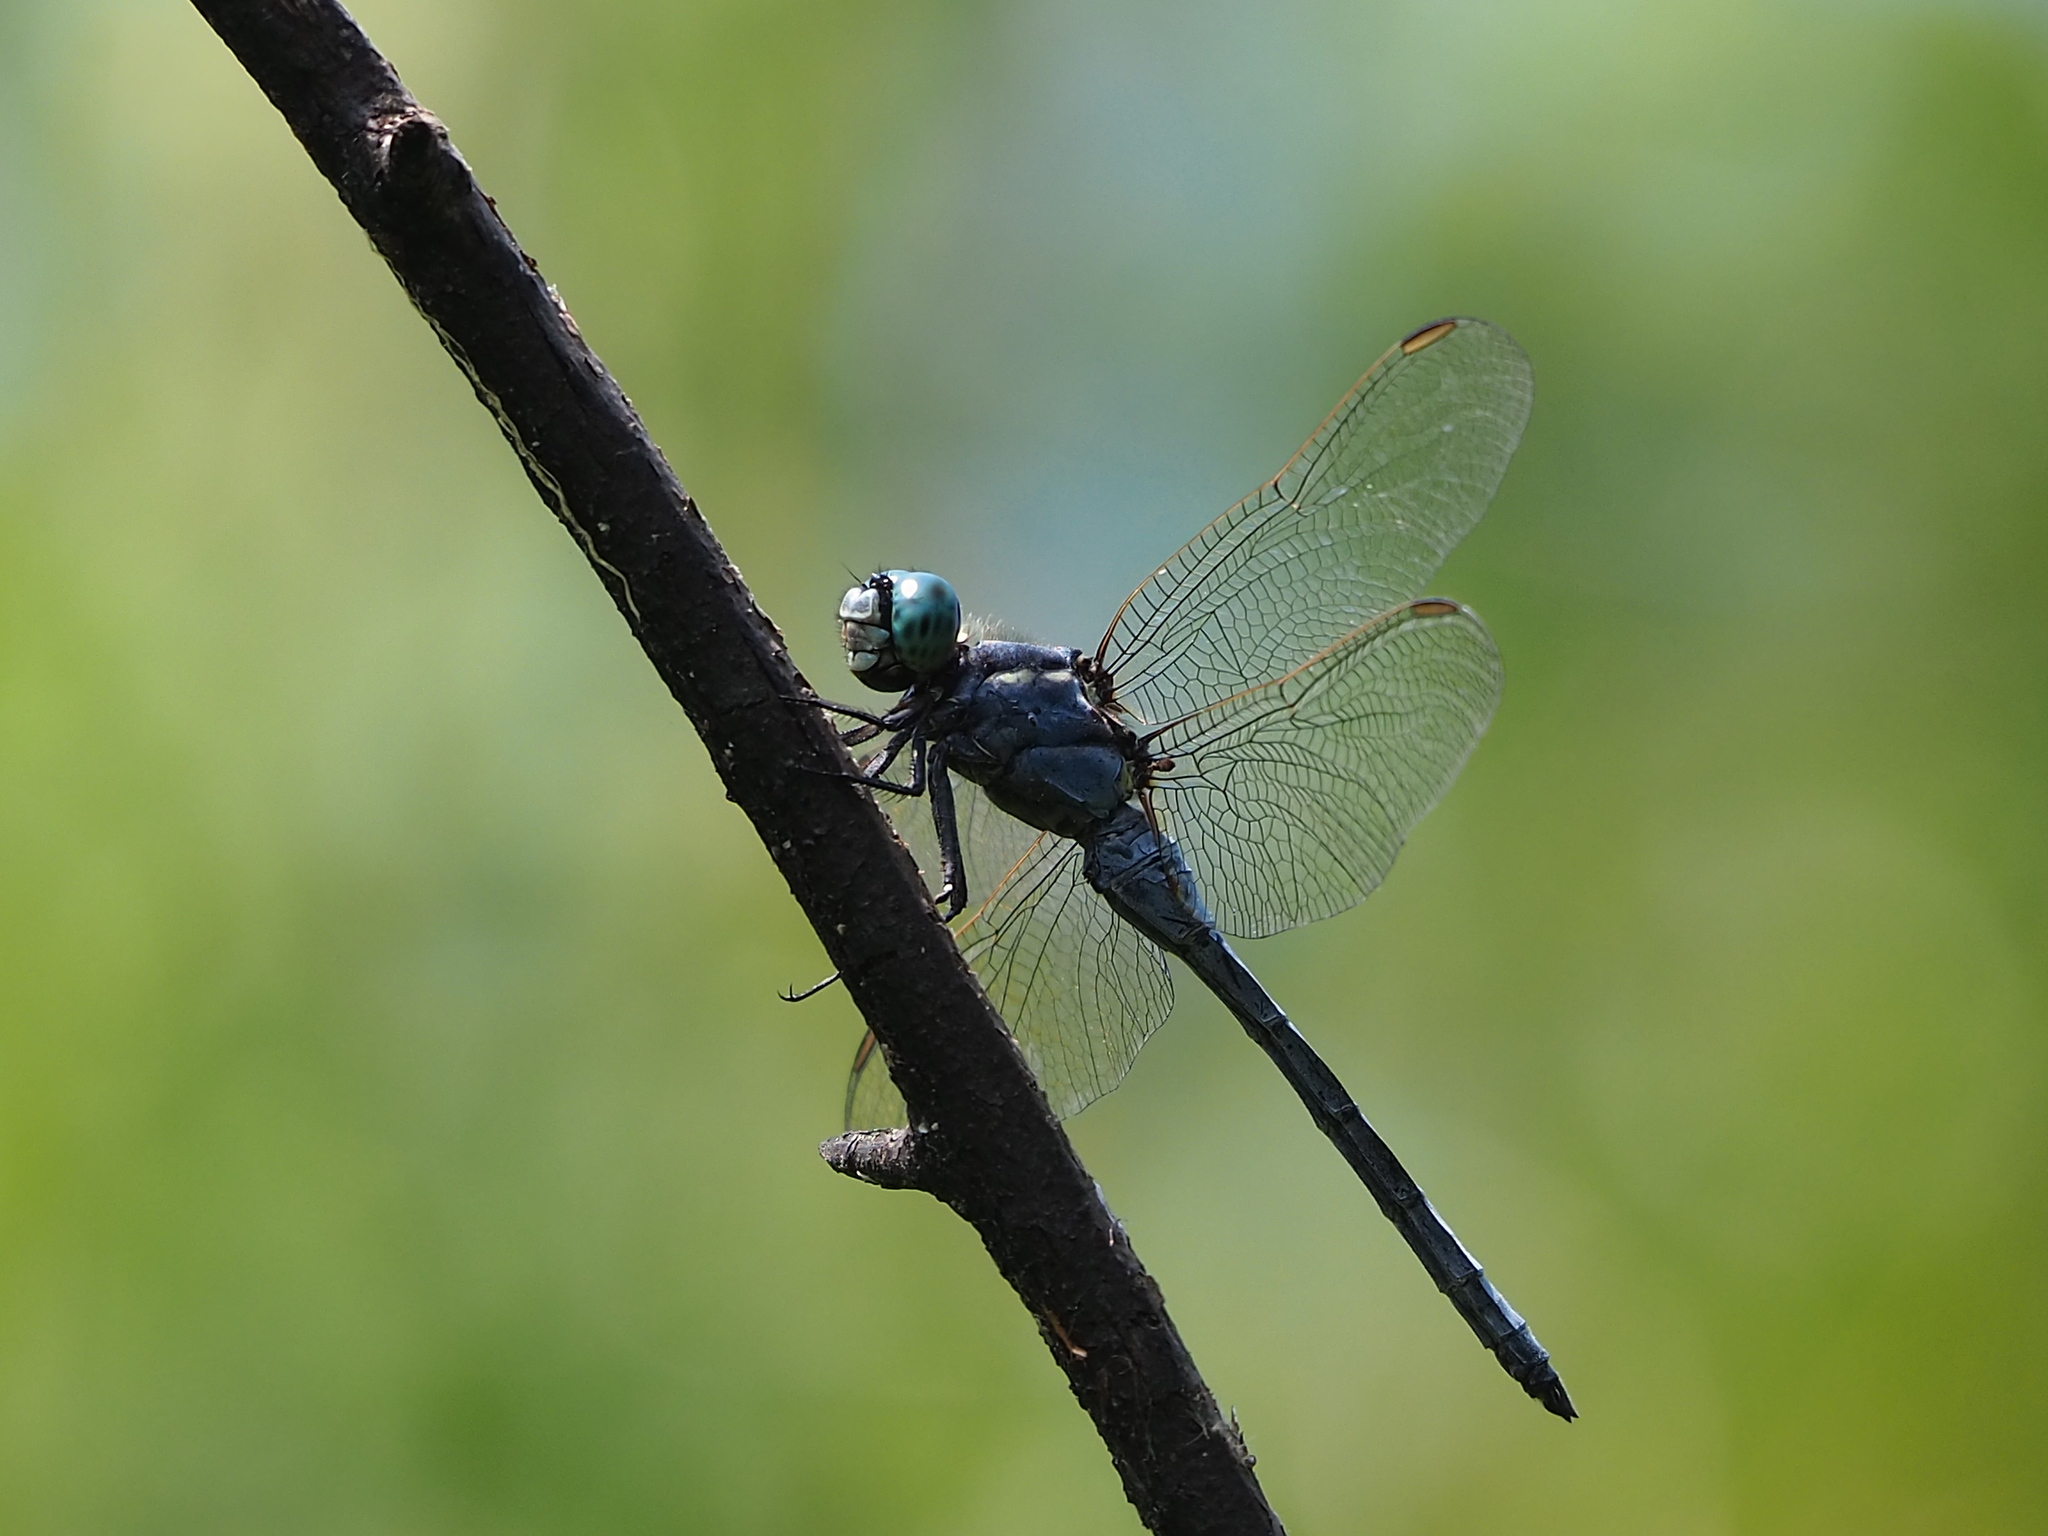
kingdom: Animalia
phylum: Arthropoda
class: Insecta
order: Odonata
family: Libellulidae
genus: Orthetrum
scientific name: Orthetrum luzonicum
